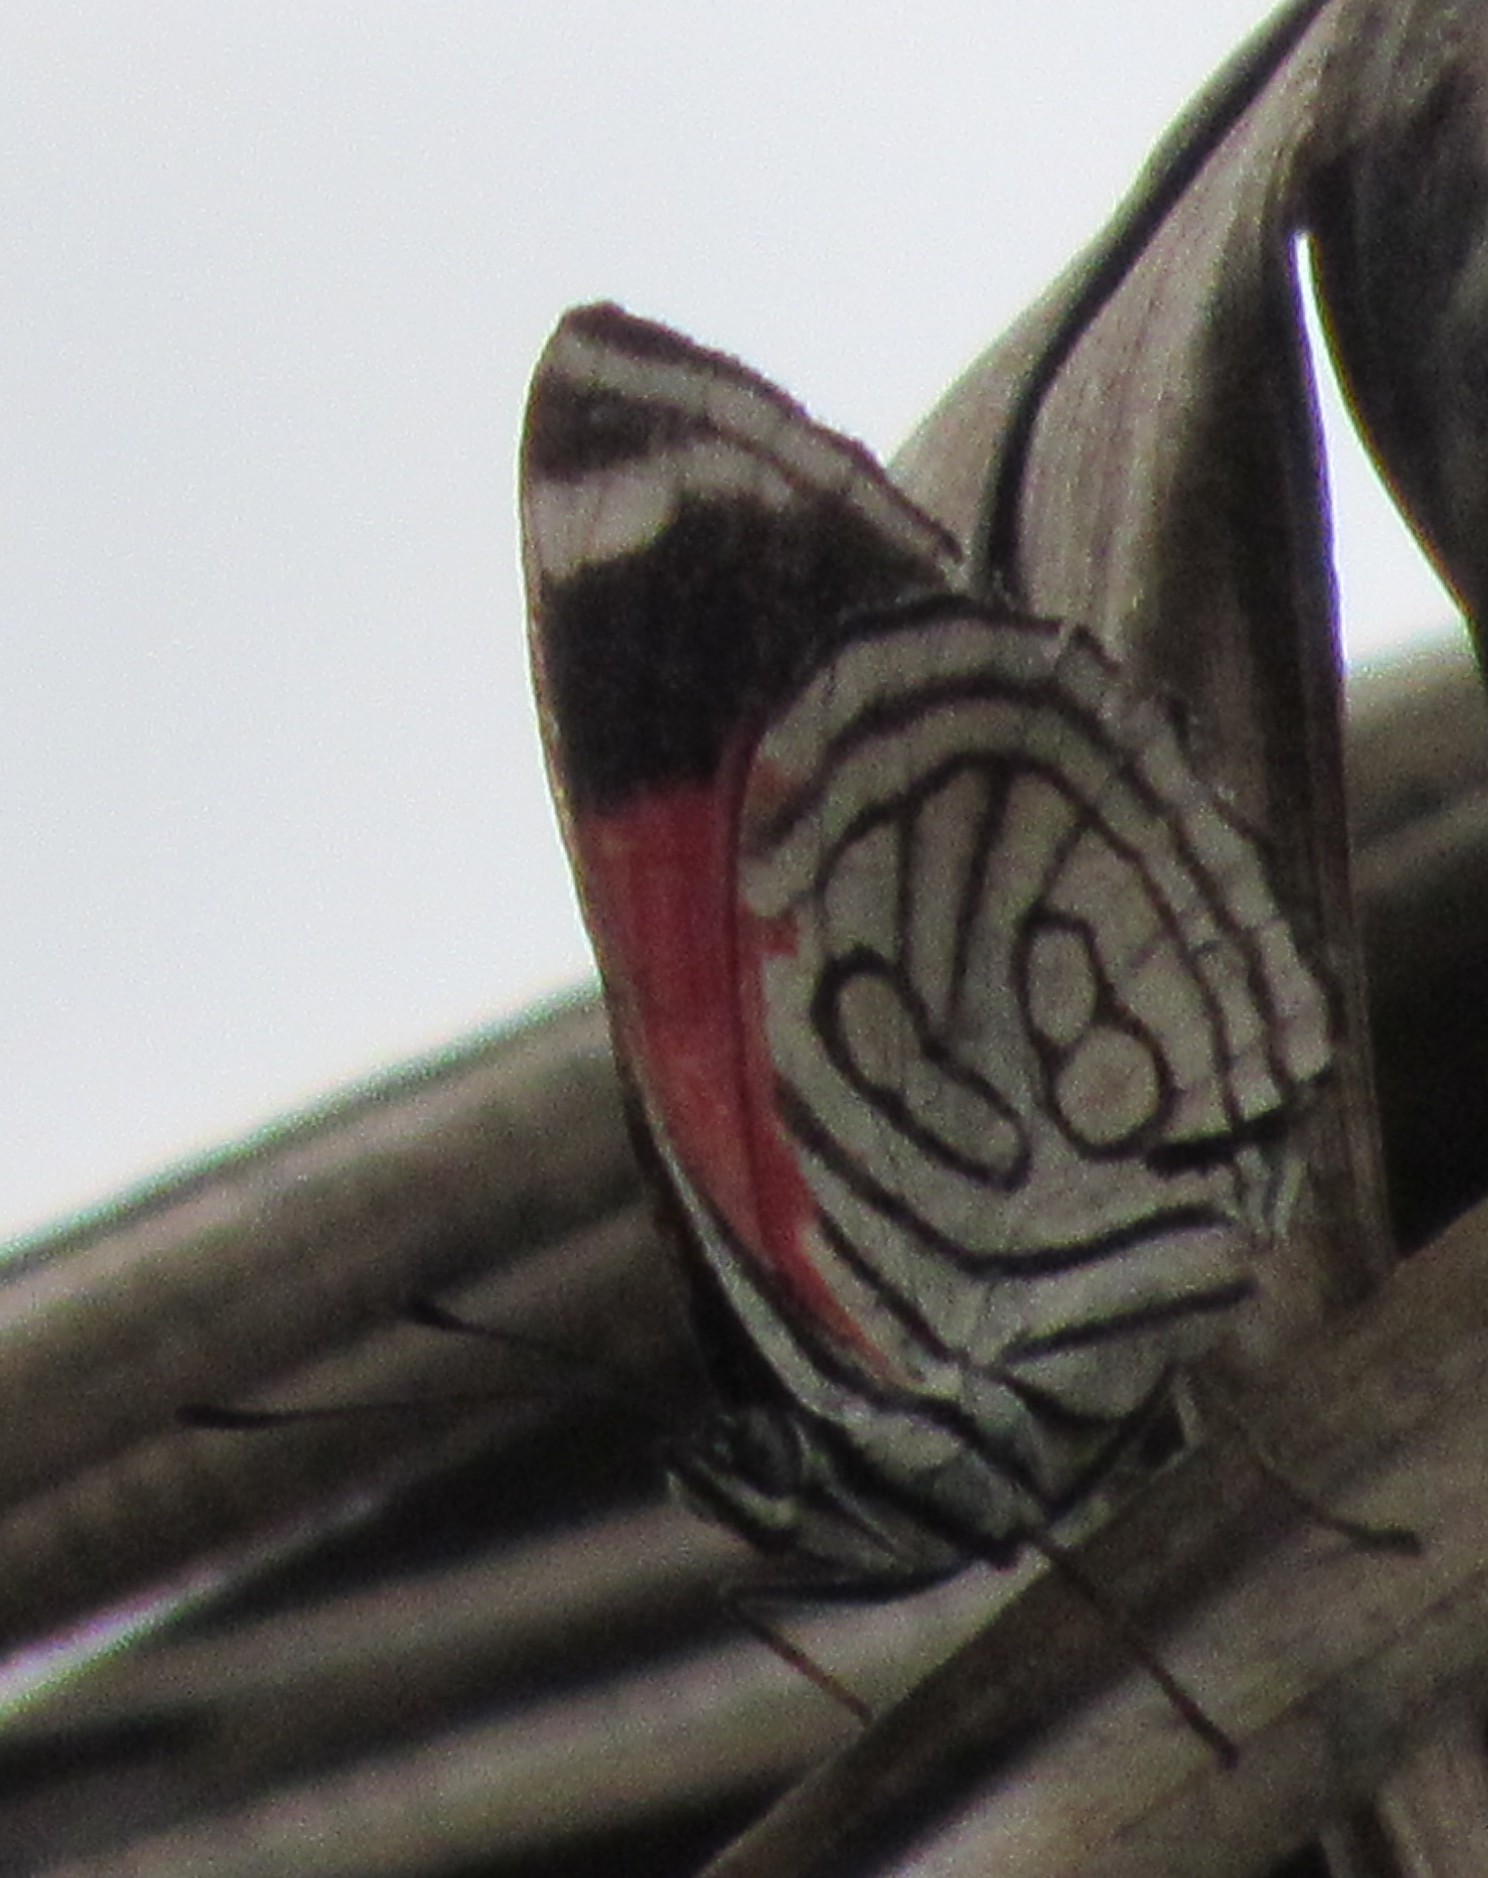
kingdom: Animalia
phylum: Arthropoda
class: Insecta
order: Lepidoptera
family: Nymphalidae
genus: Diaethria
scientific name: Diaethria candrena
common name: Number eighty
